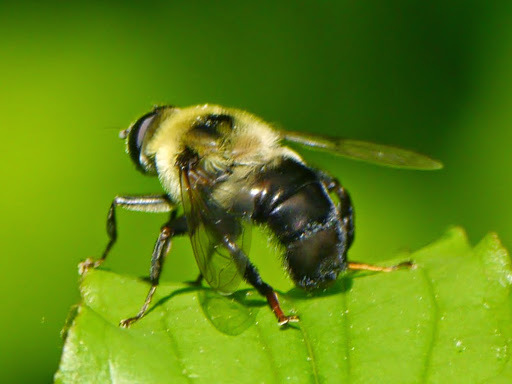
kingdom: Animalia
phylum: Arthropoda
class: Insecta
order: Diptera
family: Syrphidae
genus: Imatisma
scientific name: Imatisma posticata
